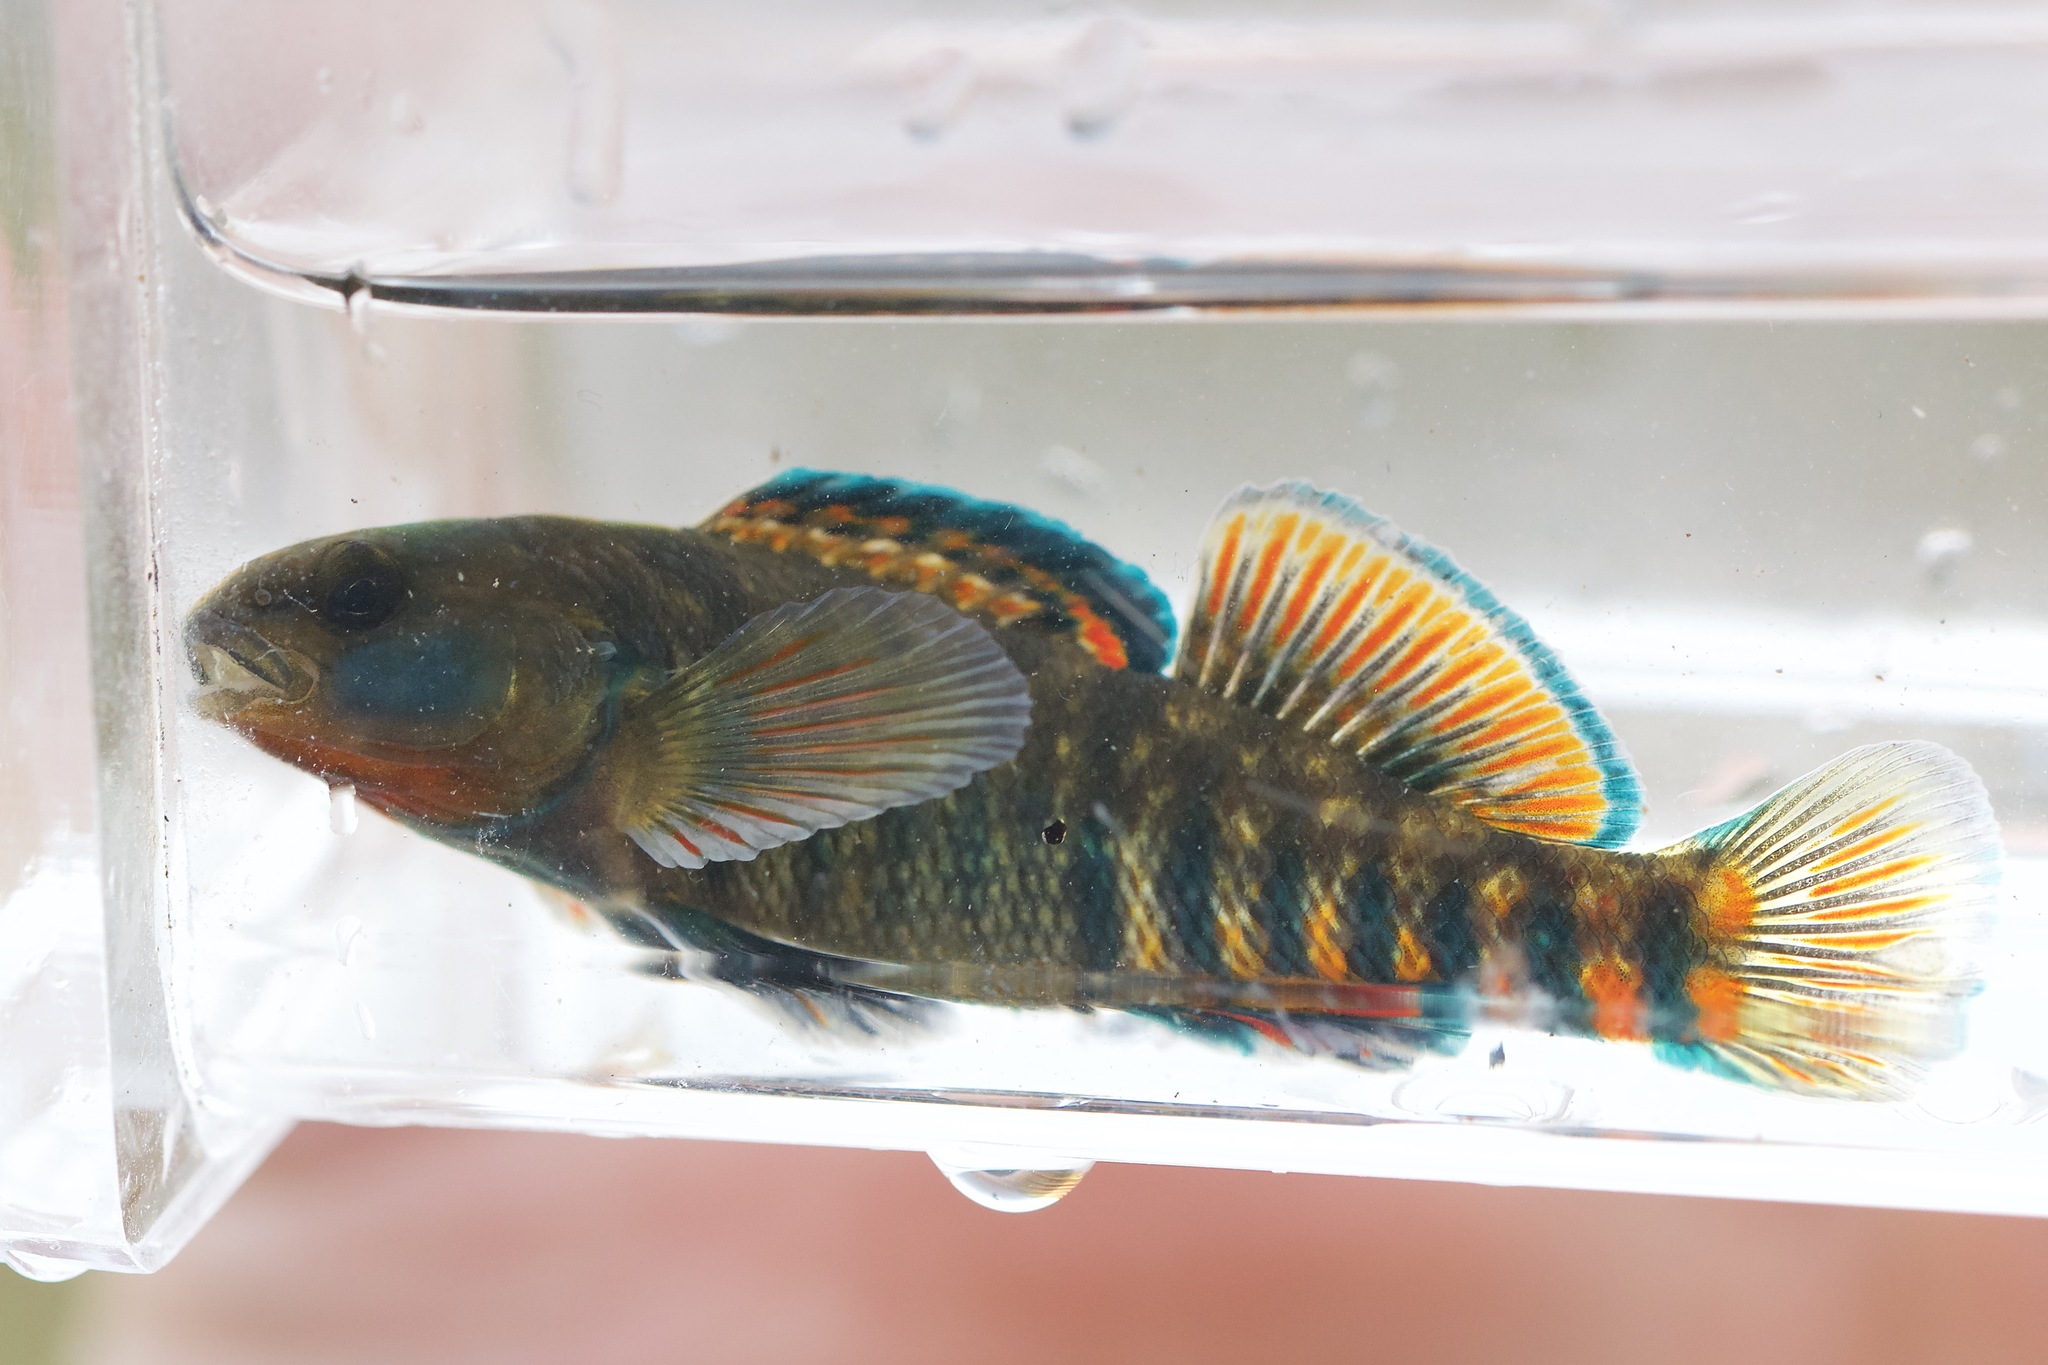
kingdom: Animalia
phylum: Chordata
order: Perciformes
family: Percidae
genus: Etheostoma
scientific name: Etheostoma caeruleum
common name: Rainbow darter
